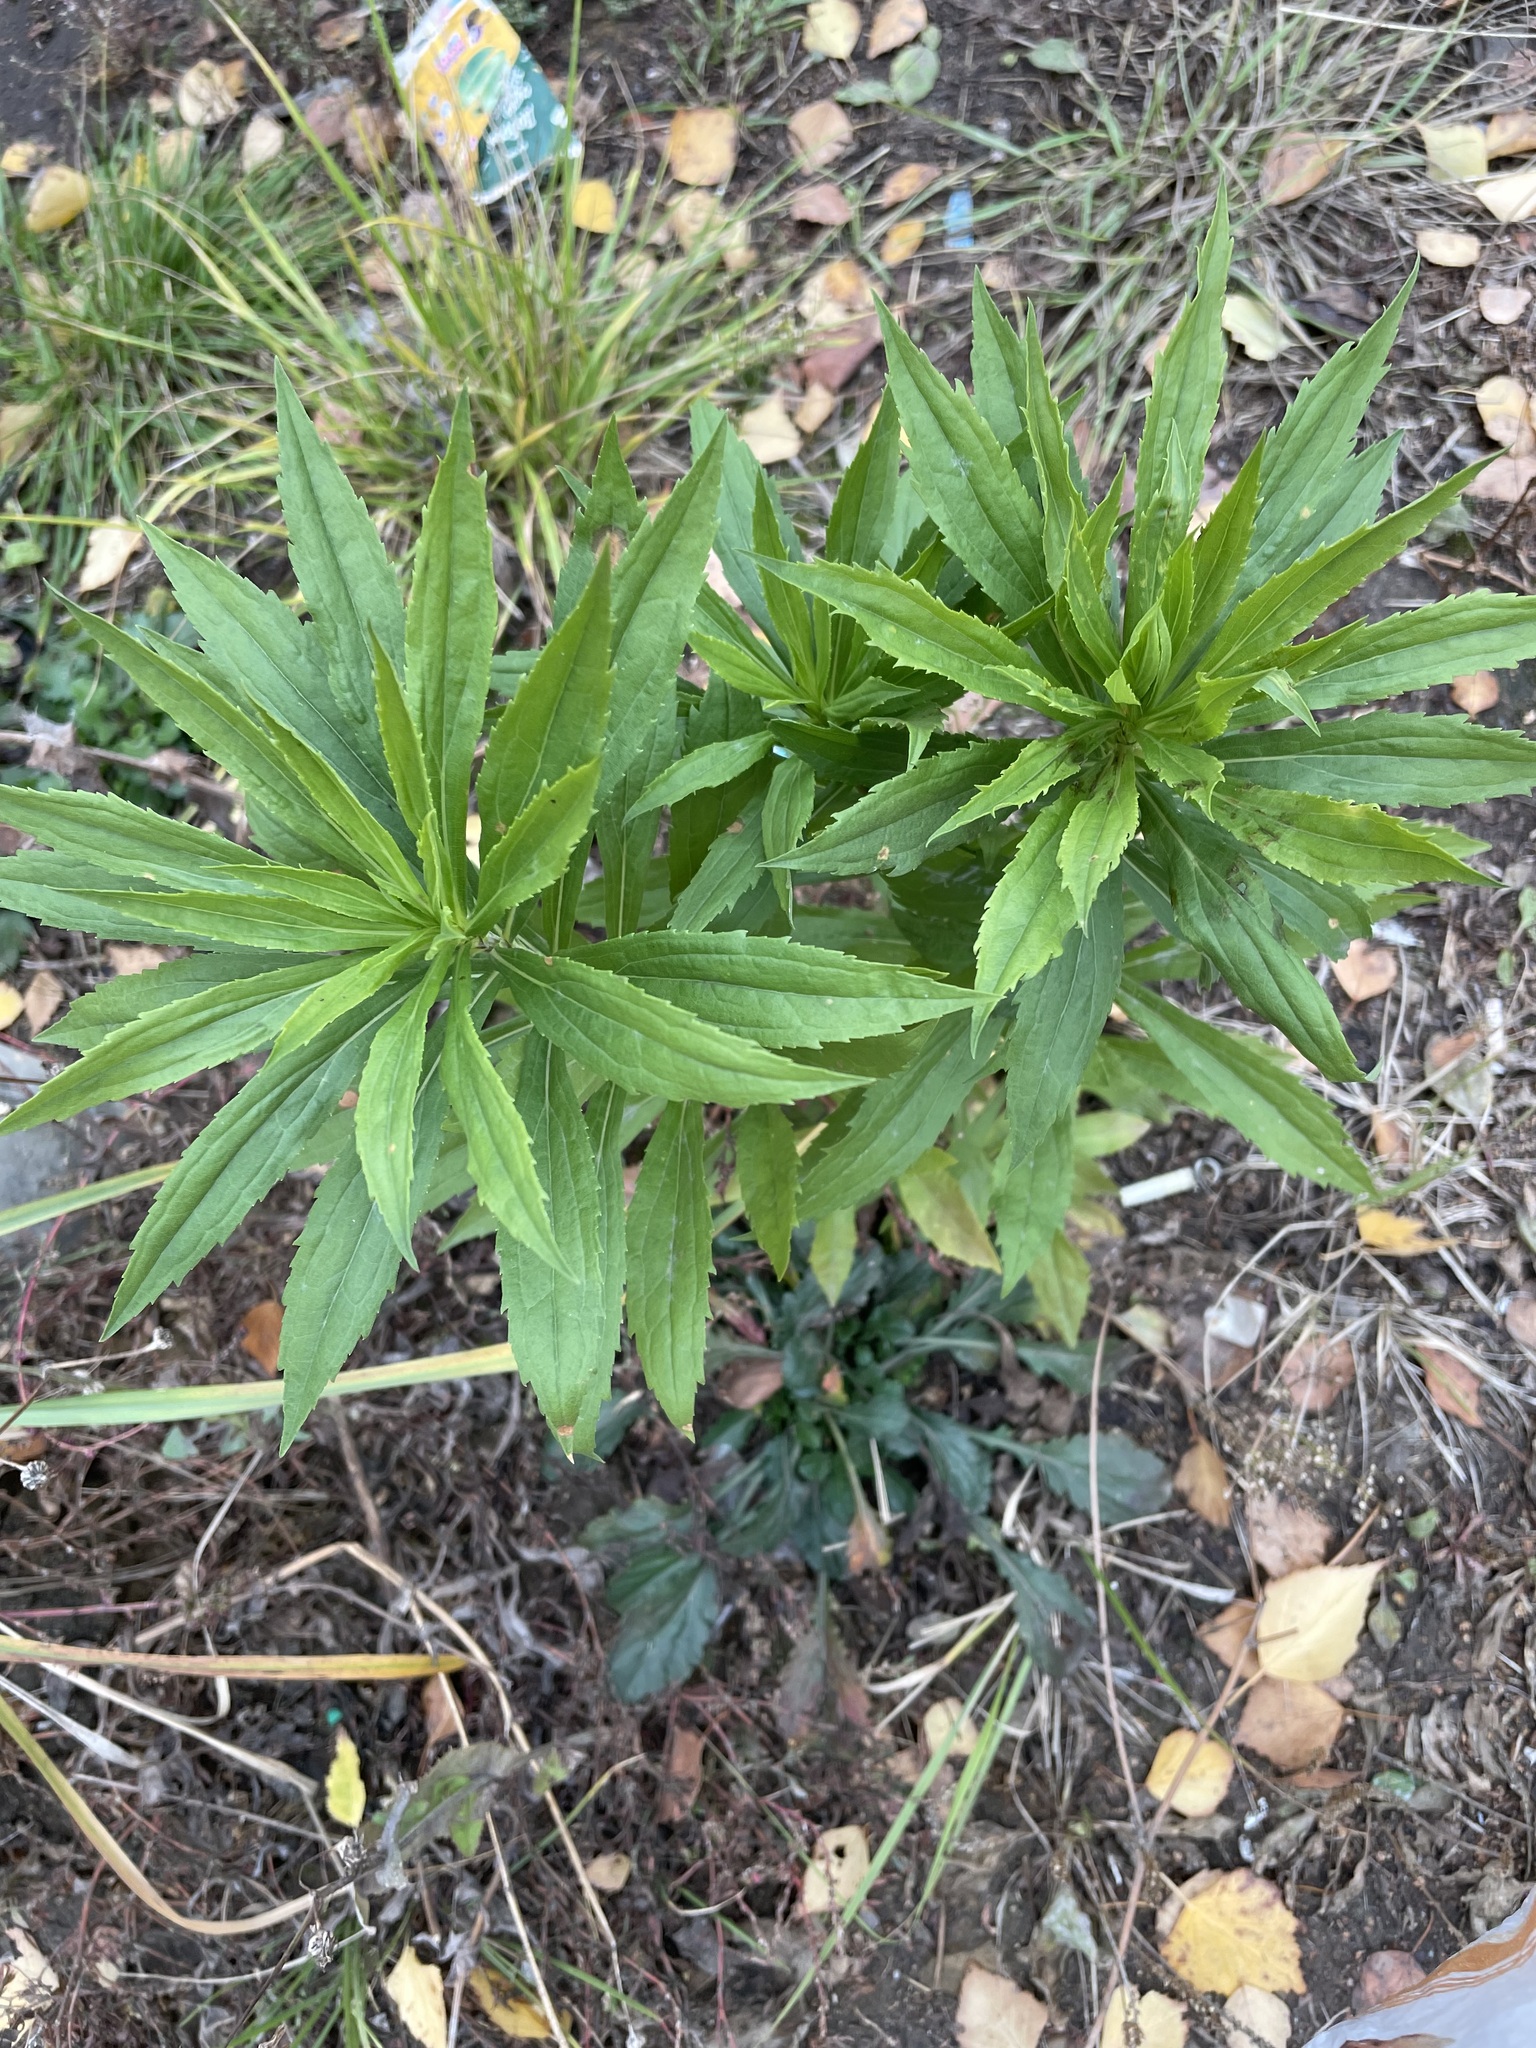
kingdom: Plantae
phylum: Tracheophyta
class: Magnoliopsida
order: Asterales
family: Asteraceae
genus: Solidago
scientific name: Solidago canadensis
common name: Canada goldenrod
